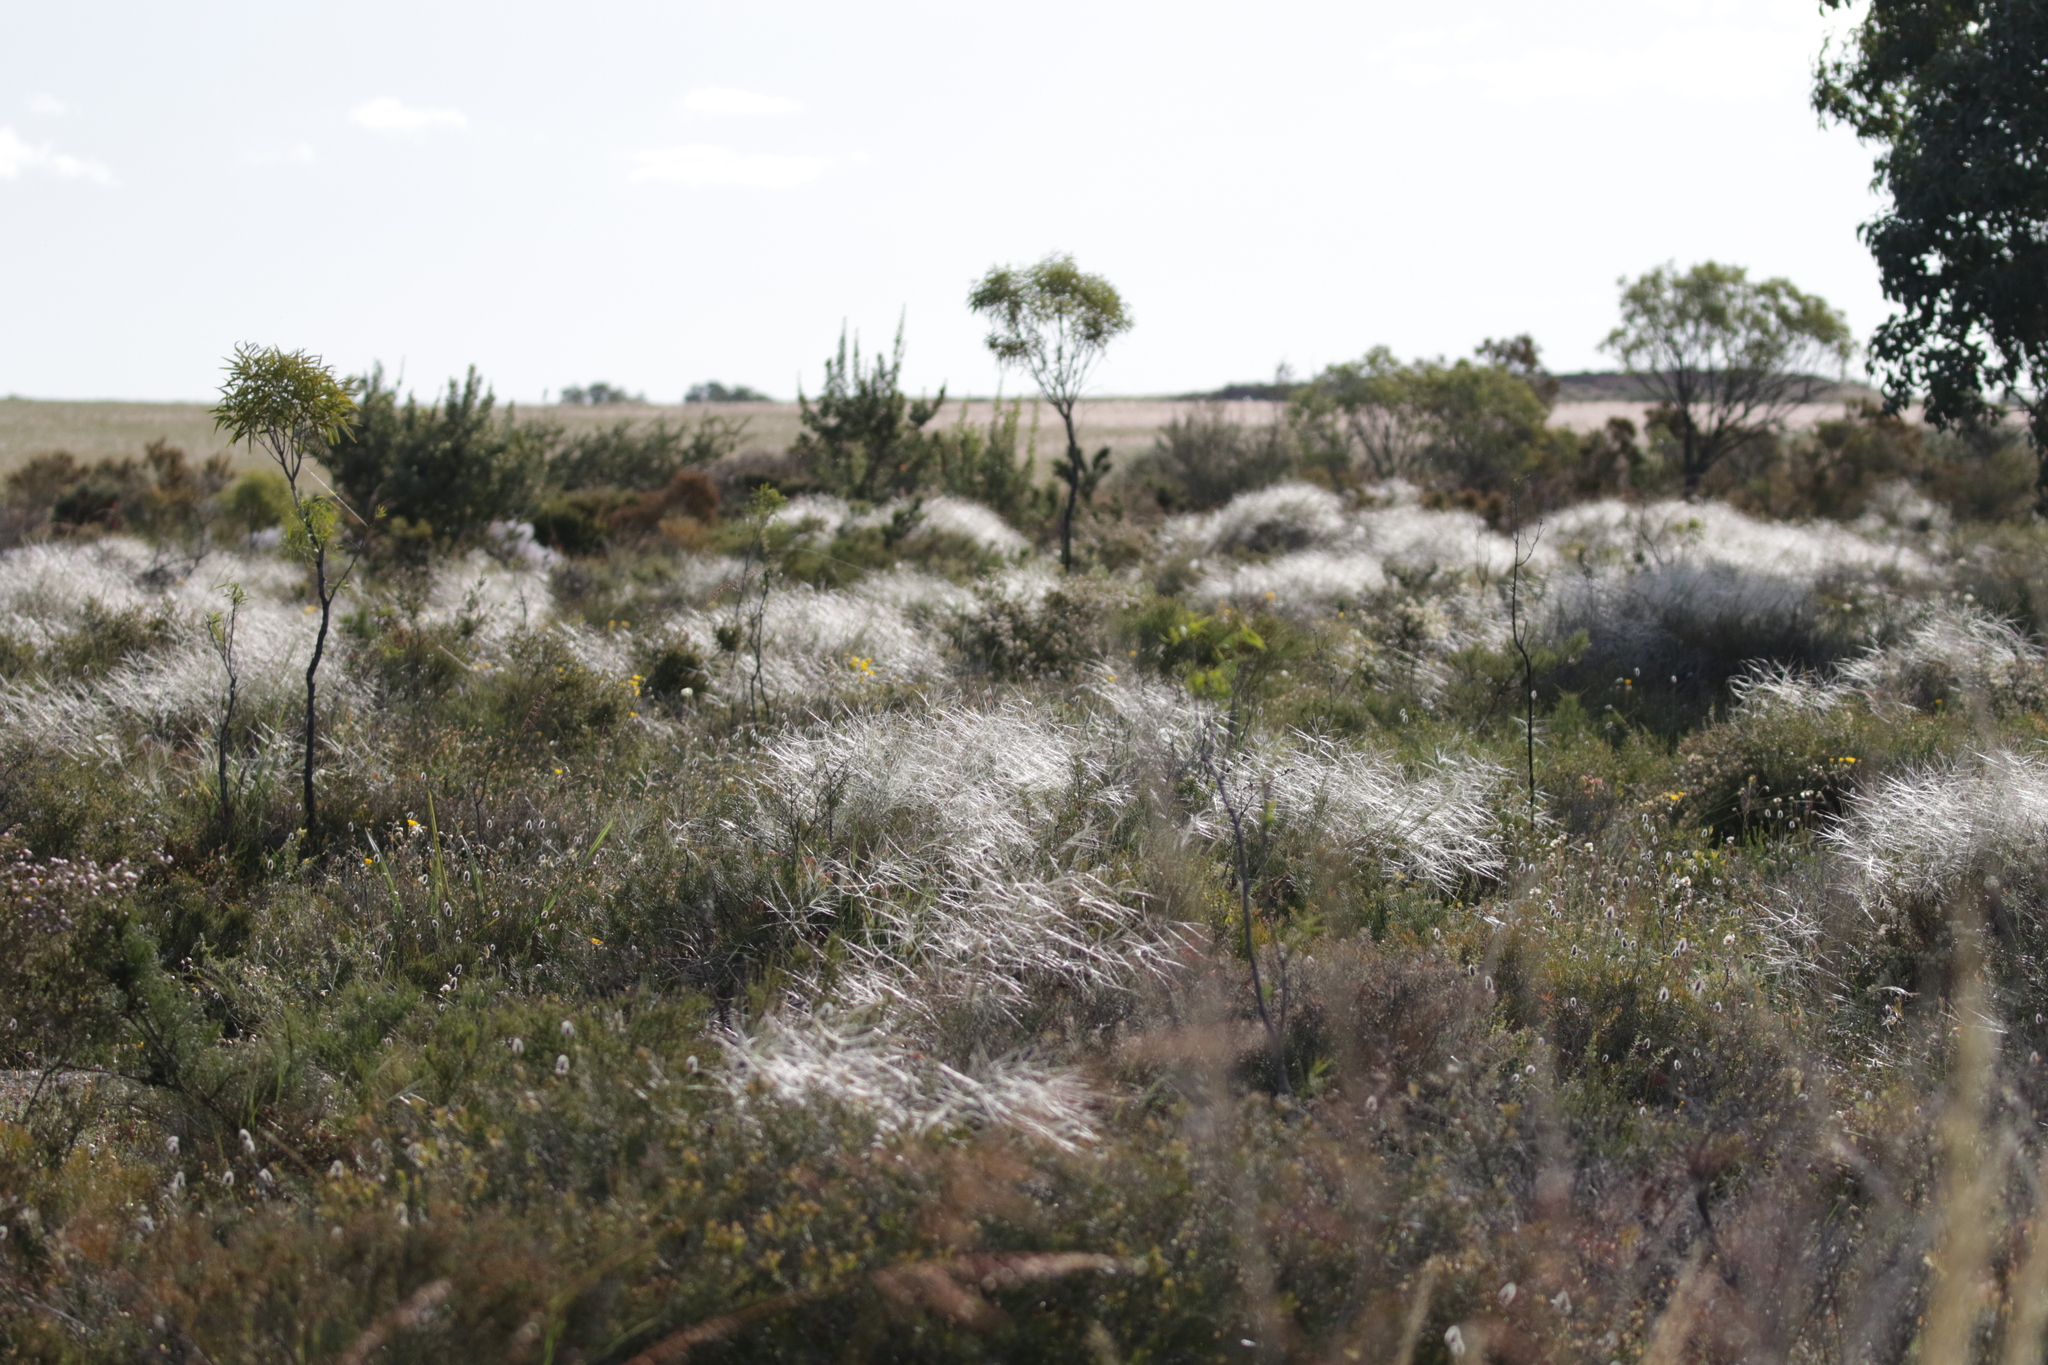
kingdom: Plantae
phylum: Tracheophyta
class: Liliopsida
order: Poales
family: Poaceae
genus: Austrostipa
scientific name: Austrostipa elegantissima
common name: Feather spear grass
